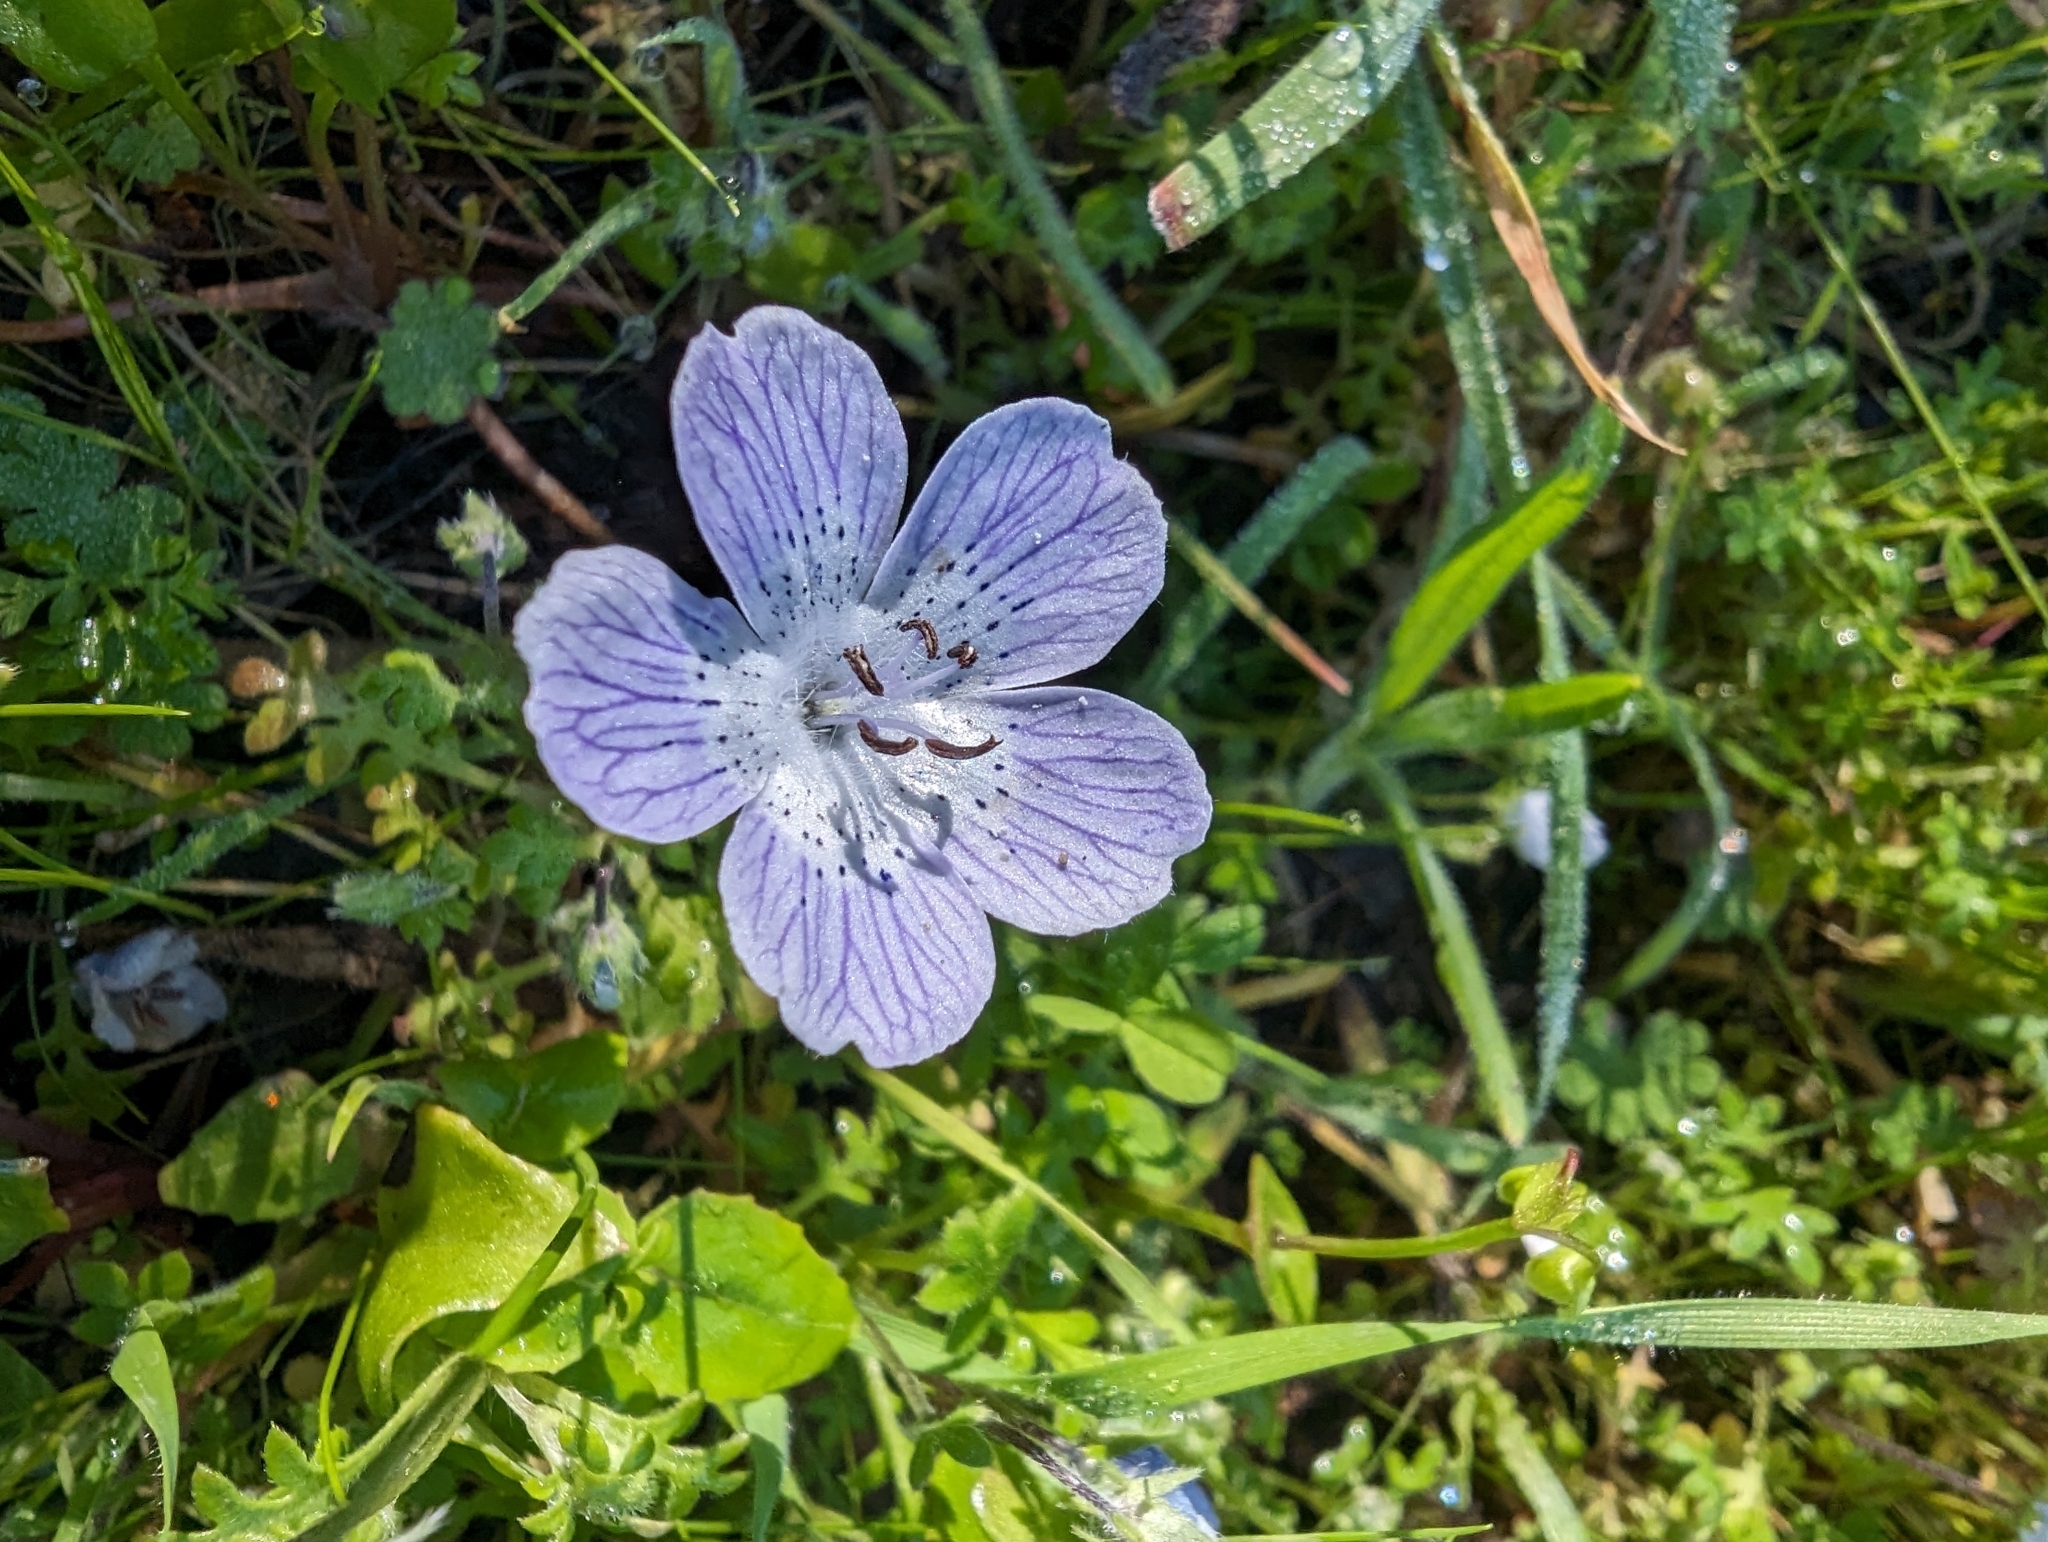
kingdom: Plantae
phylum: Tracheophyta
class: Magnoliopsida
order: Boraginales
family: Hydrophyllaceae
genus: Nemophila
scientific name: Nemophila menziesii
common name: Baby's-blue-eyes
